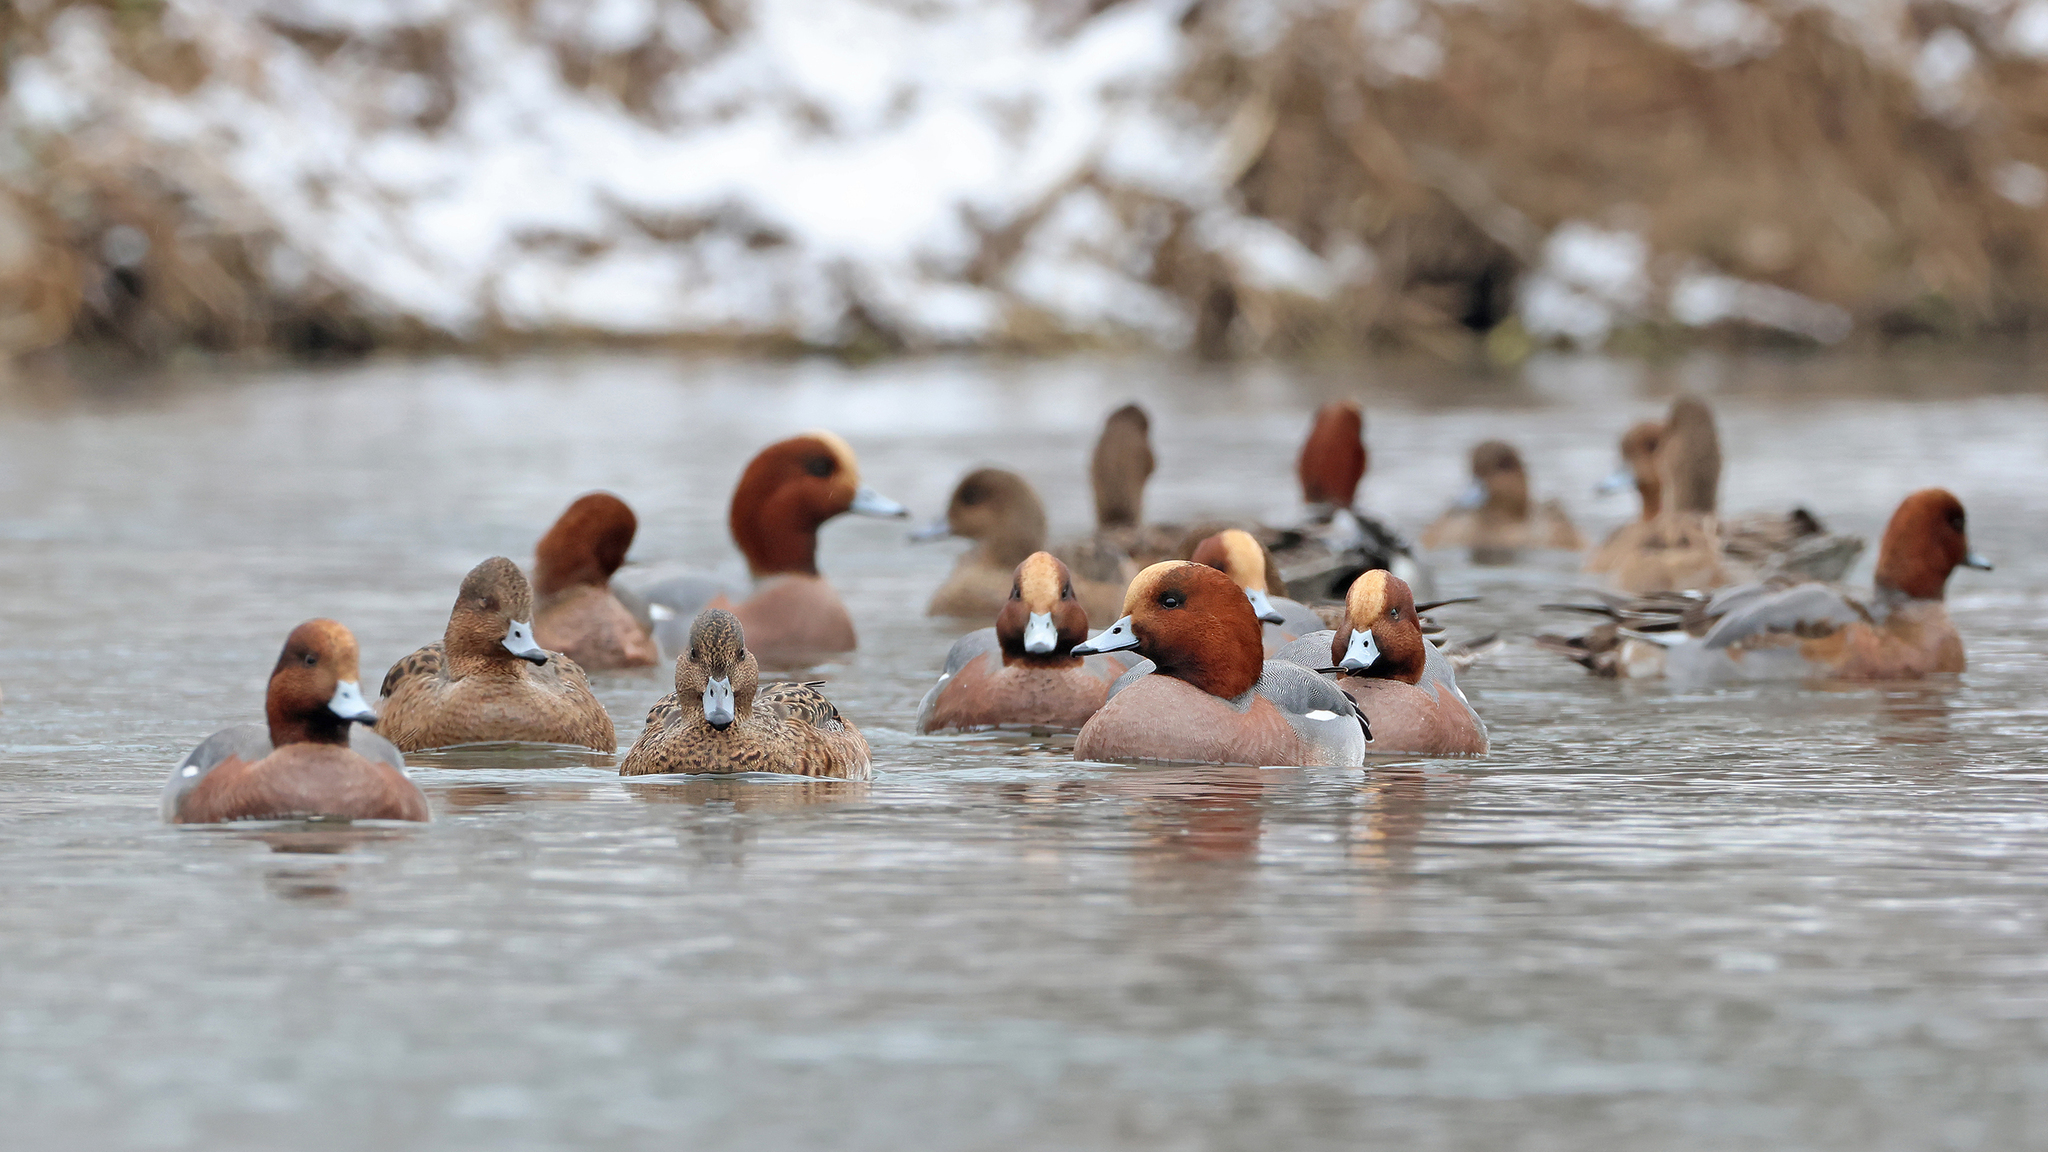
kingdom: Animalia
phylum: Chordata
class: Aves
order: Anseriformes
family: Anatidae
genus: Mareca
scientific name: Mareca penelope
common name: Eurasian wigeon
